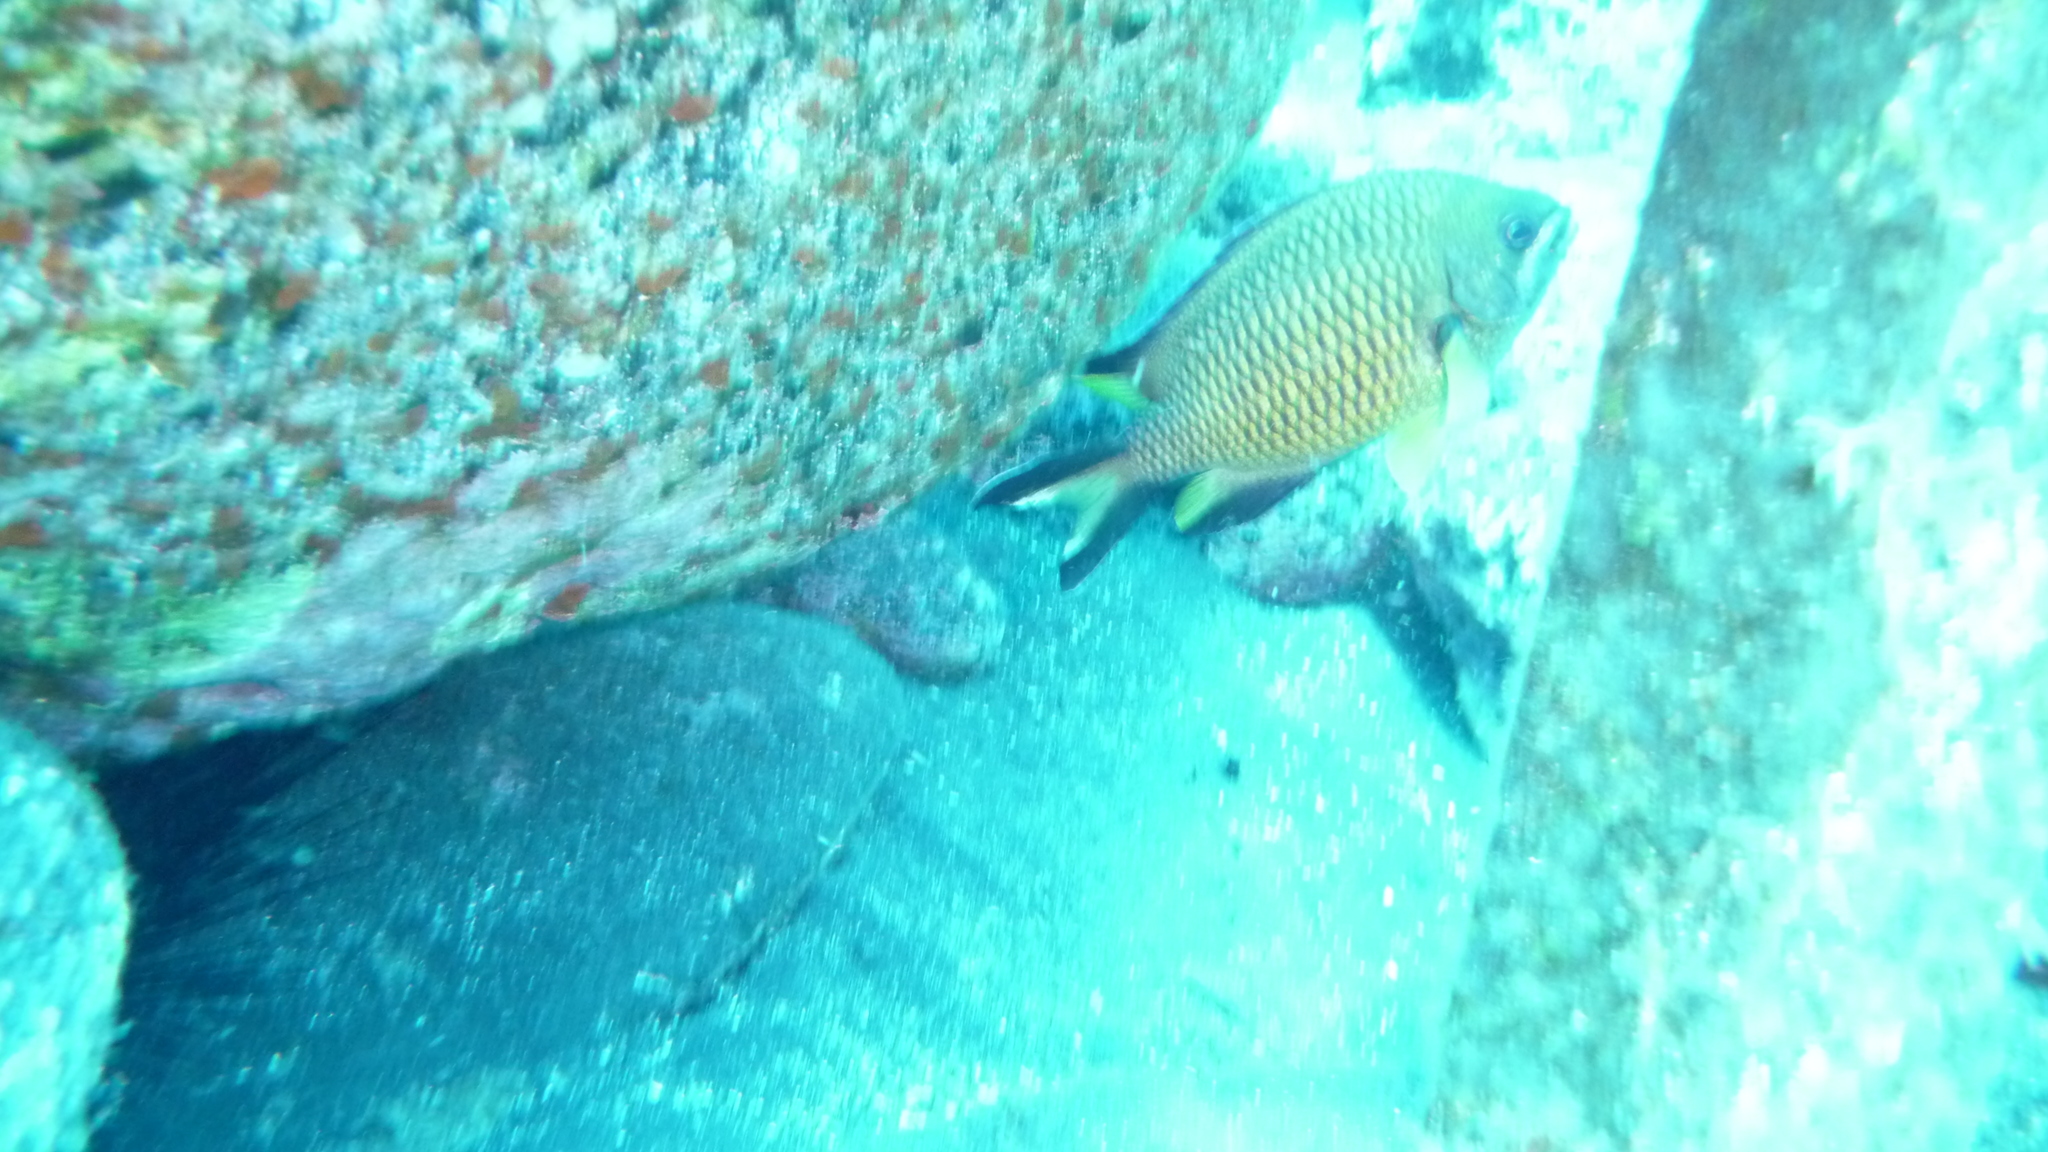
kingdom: Animalia
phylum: Chordata
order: Perciformes
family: Pomacentridae
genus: Chromis
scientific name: Chromis limbata
